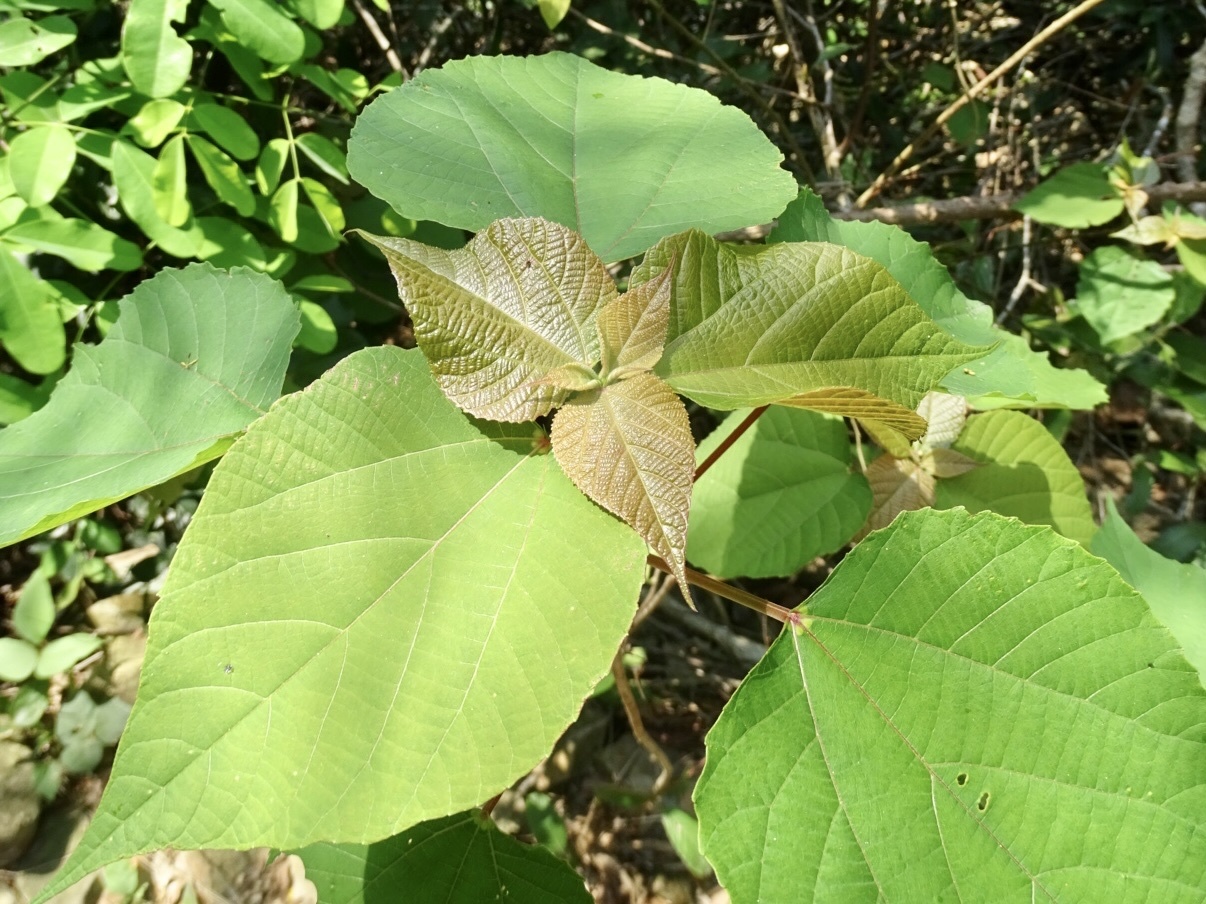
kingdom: Plantae
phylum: Tracheophyta
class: Magnoliopsida
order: Malpighiales
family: Euphorbiaceae
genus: Alchornea
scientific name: Alchornea trewioides
